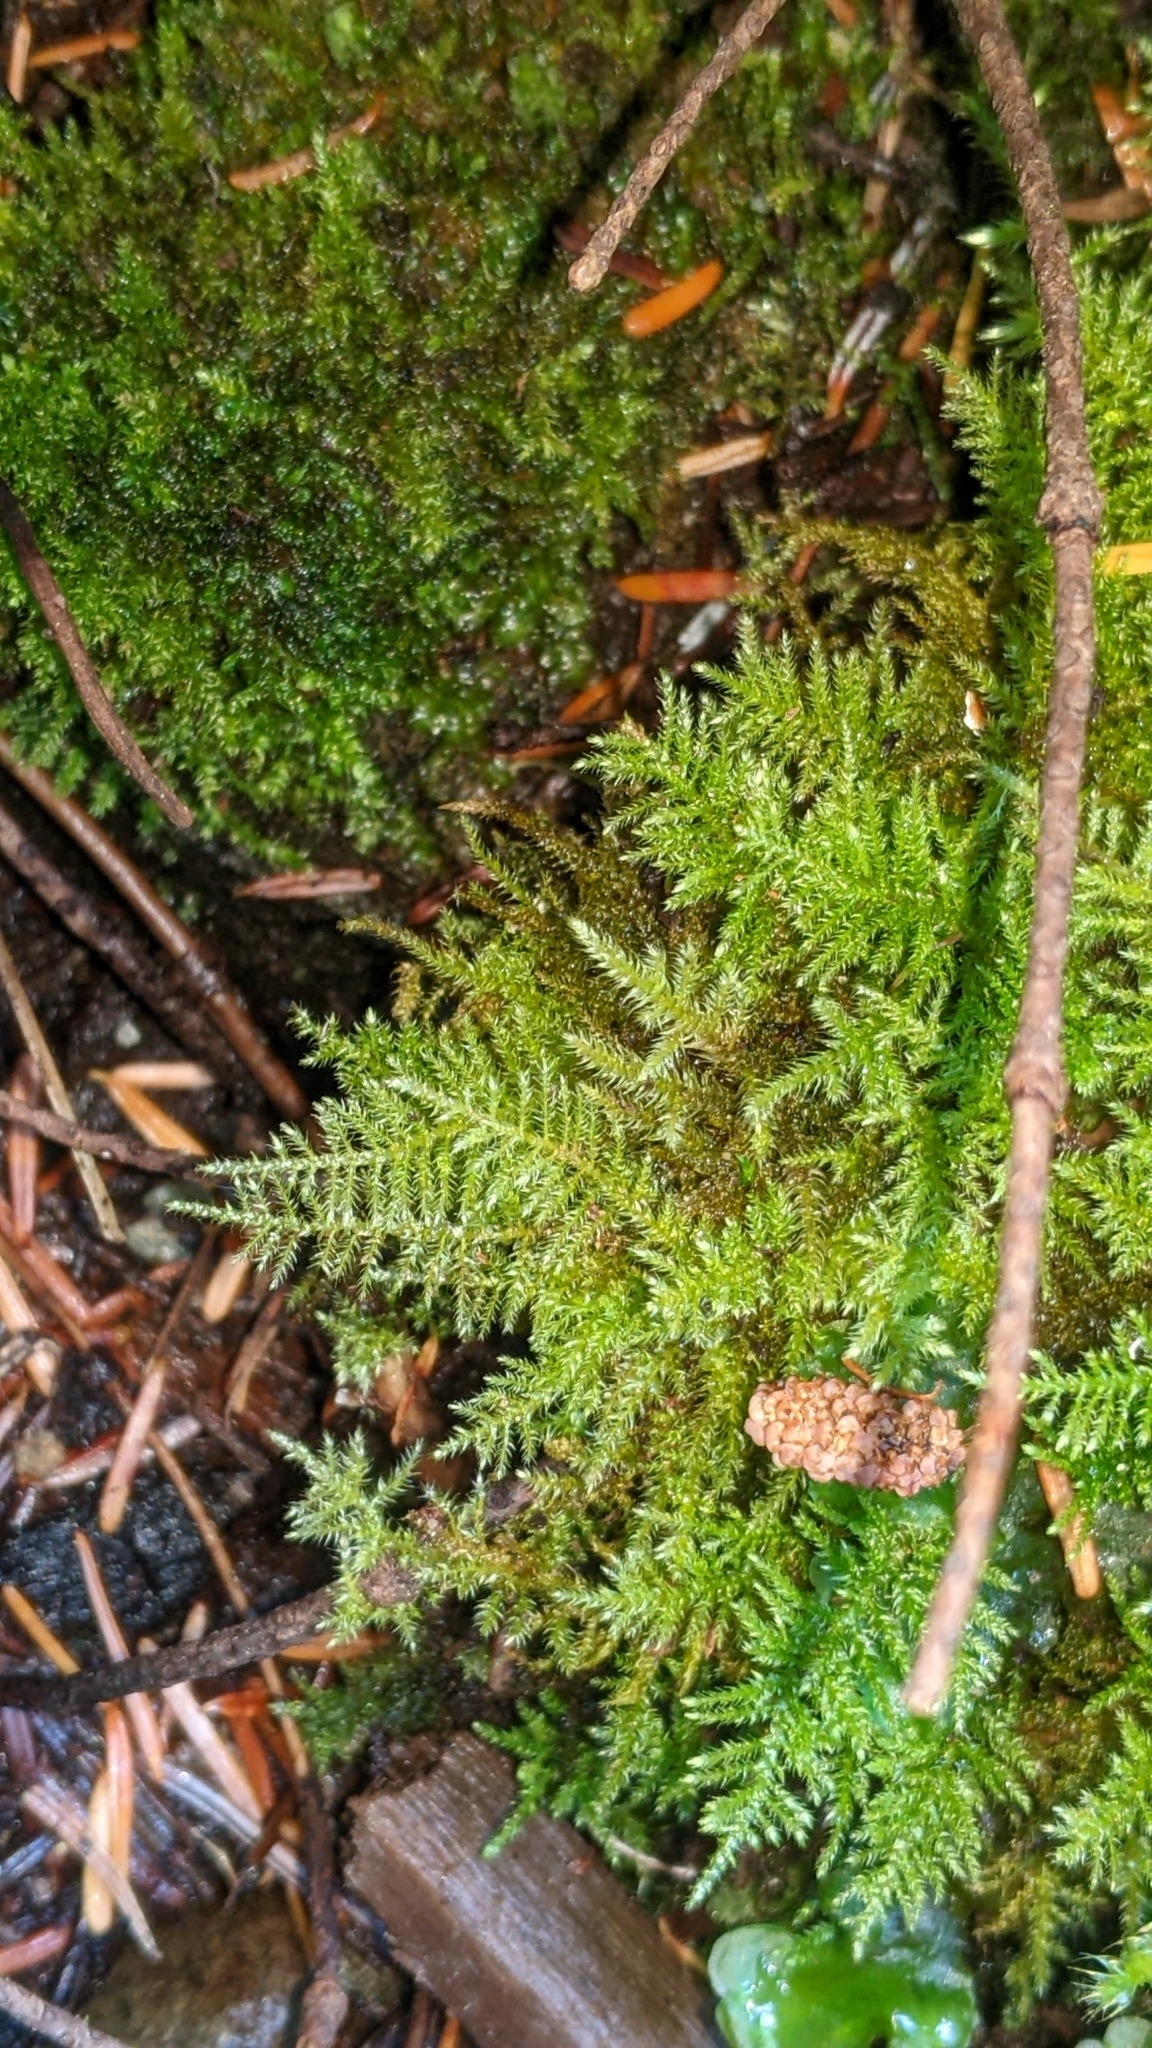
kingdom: Plantae
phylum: Bryophyta
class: Bryopsida
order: Hypnales
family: Brachytheciaceae
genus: Kindbergia
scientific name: Kindbergia praelonga
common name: Slender beaked moss
